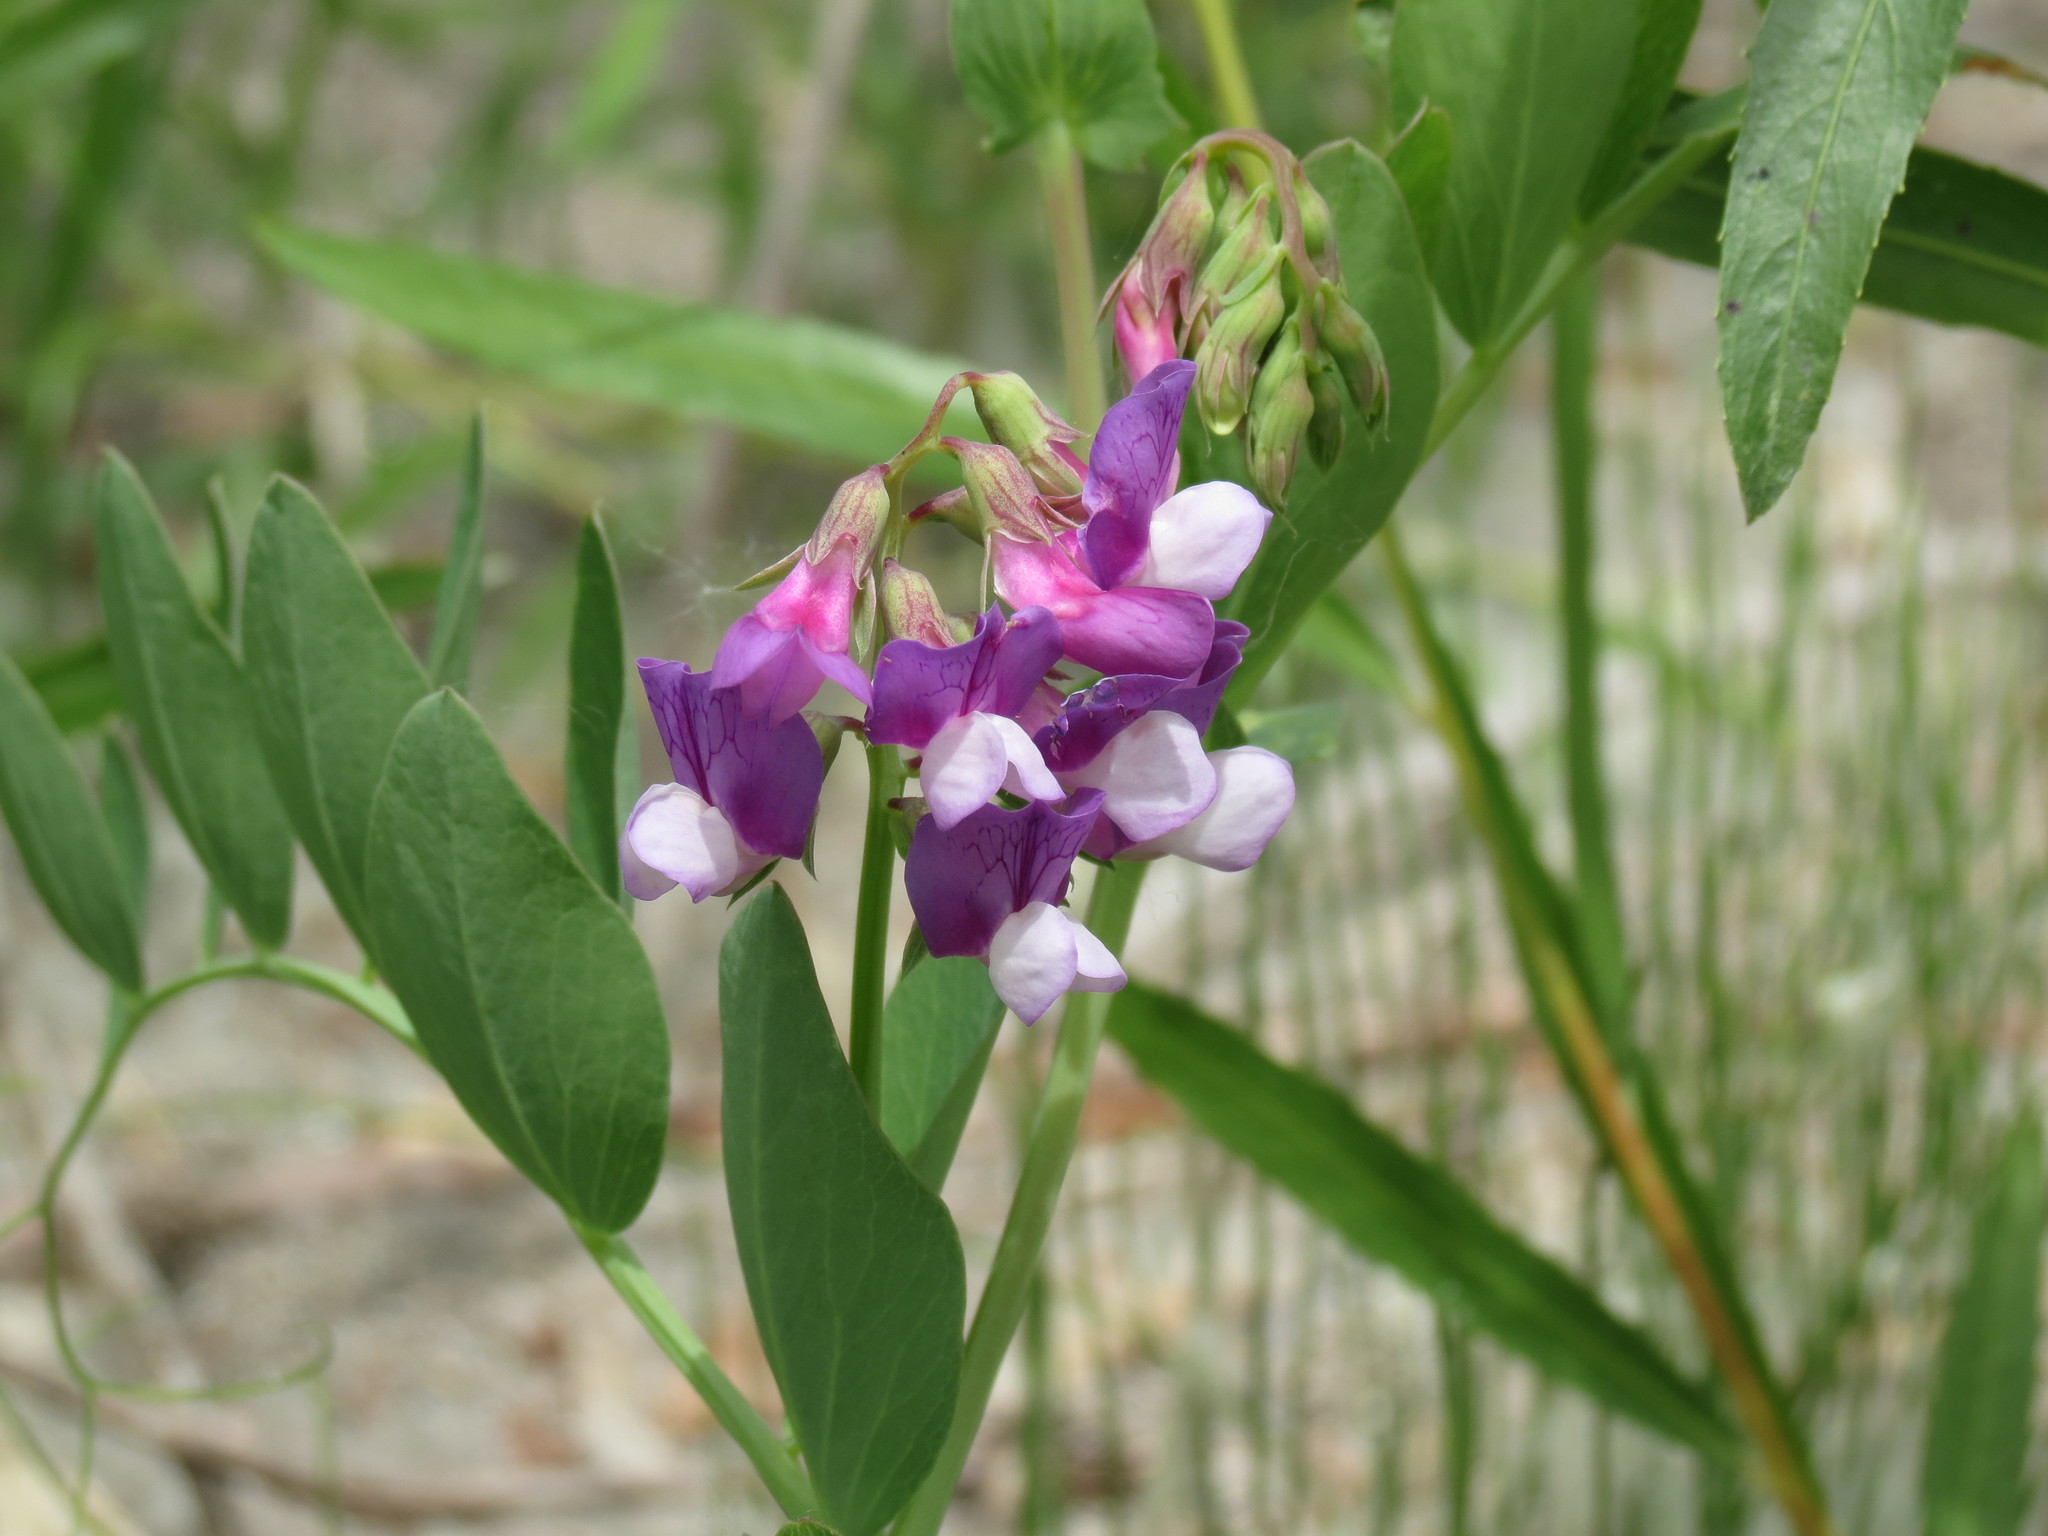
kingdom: Plantae
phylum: Tracheophyta
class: Magnoliopsida
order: Fabales
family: Fabaceae
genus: Lathyrus
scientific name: Lathyrus japonicus
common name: Sea pea
